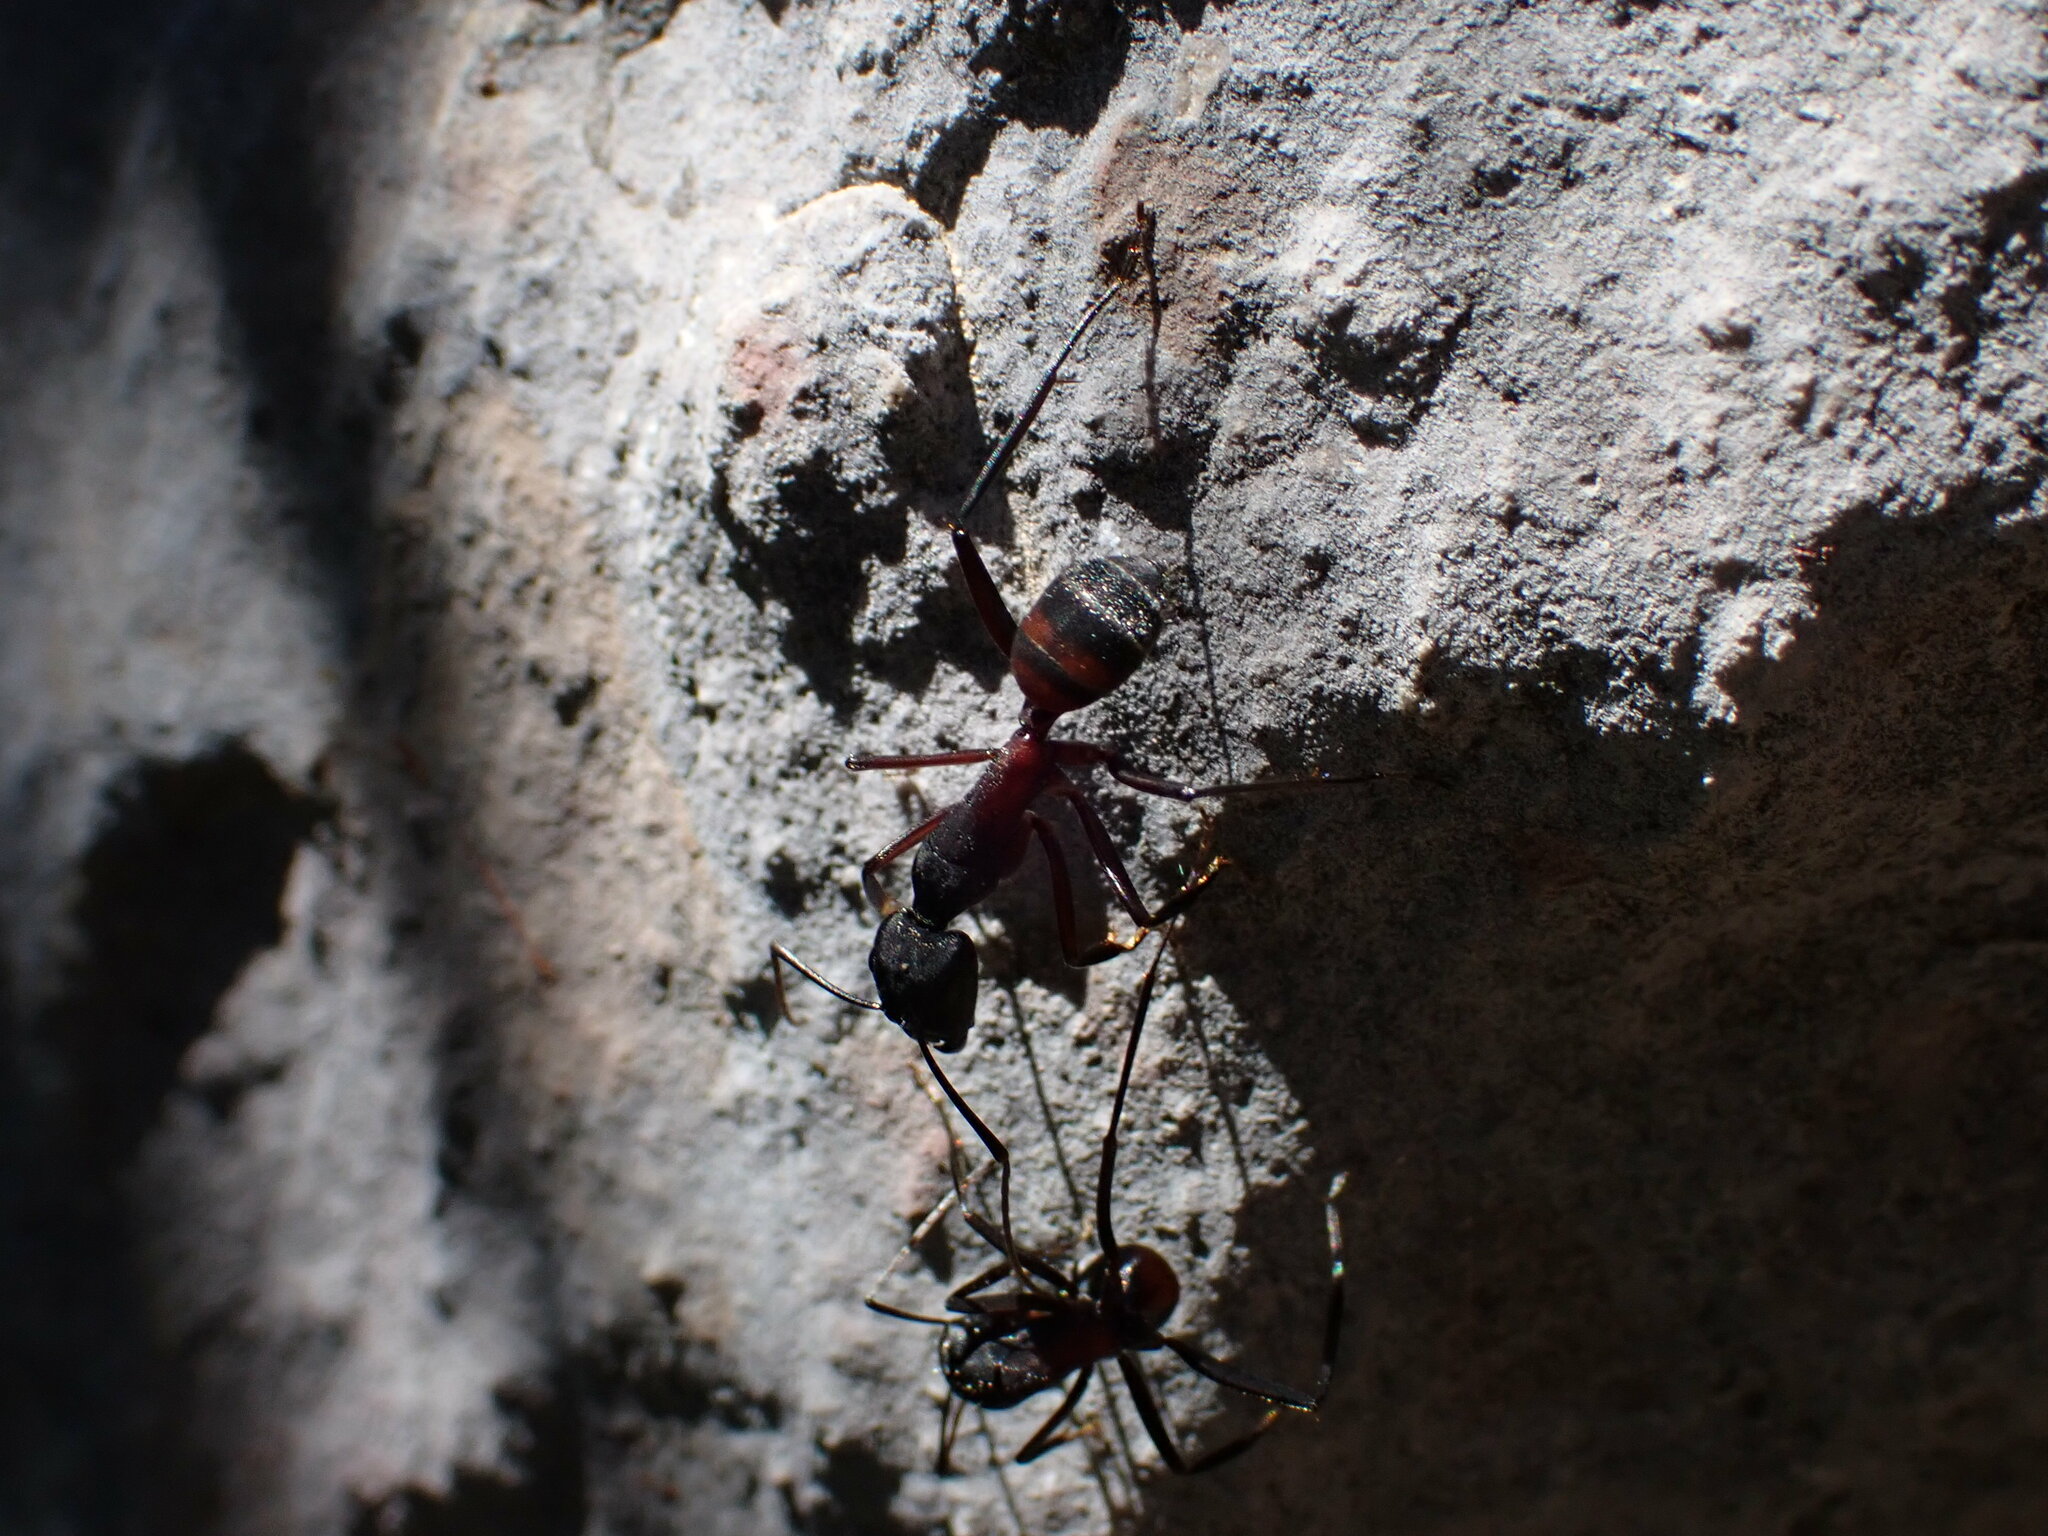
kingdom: Animalia
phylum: Arthropoda
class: Insecta
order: Hymenoptera
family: Formicidae
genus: Camponotus
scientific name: Camponotus cruentatus
